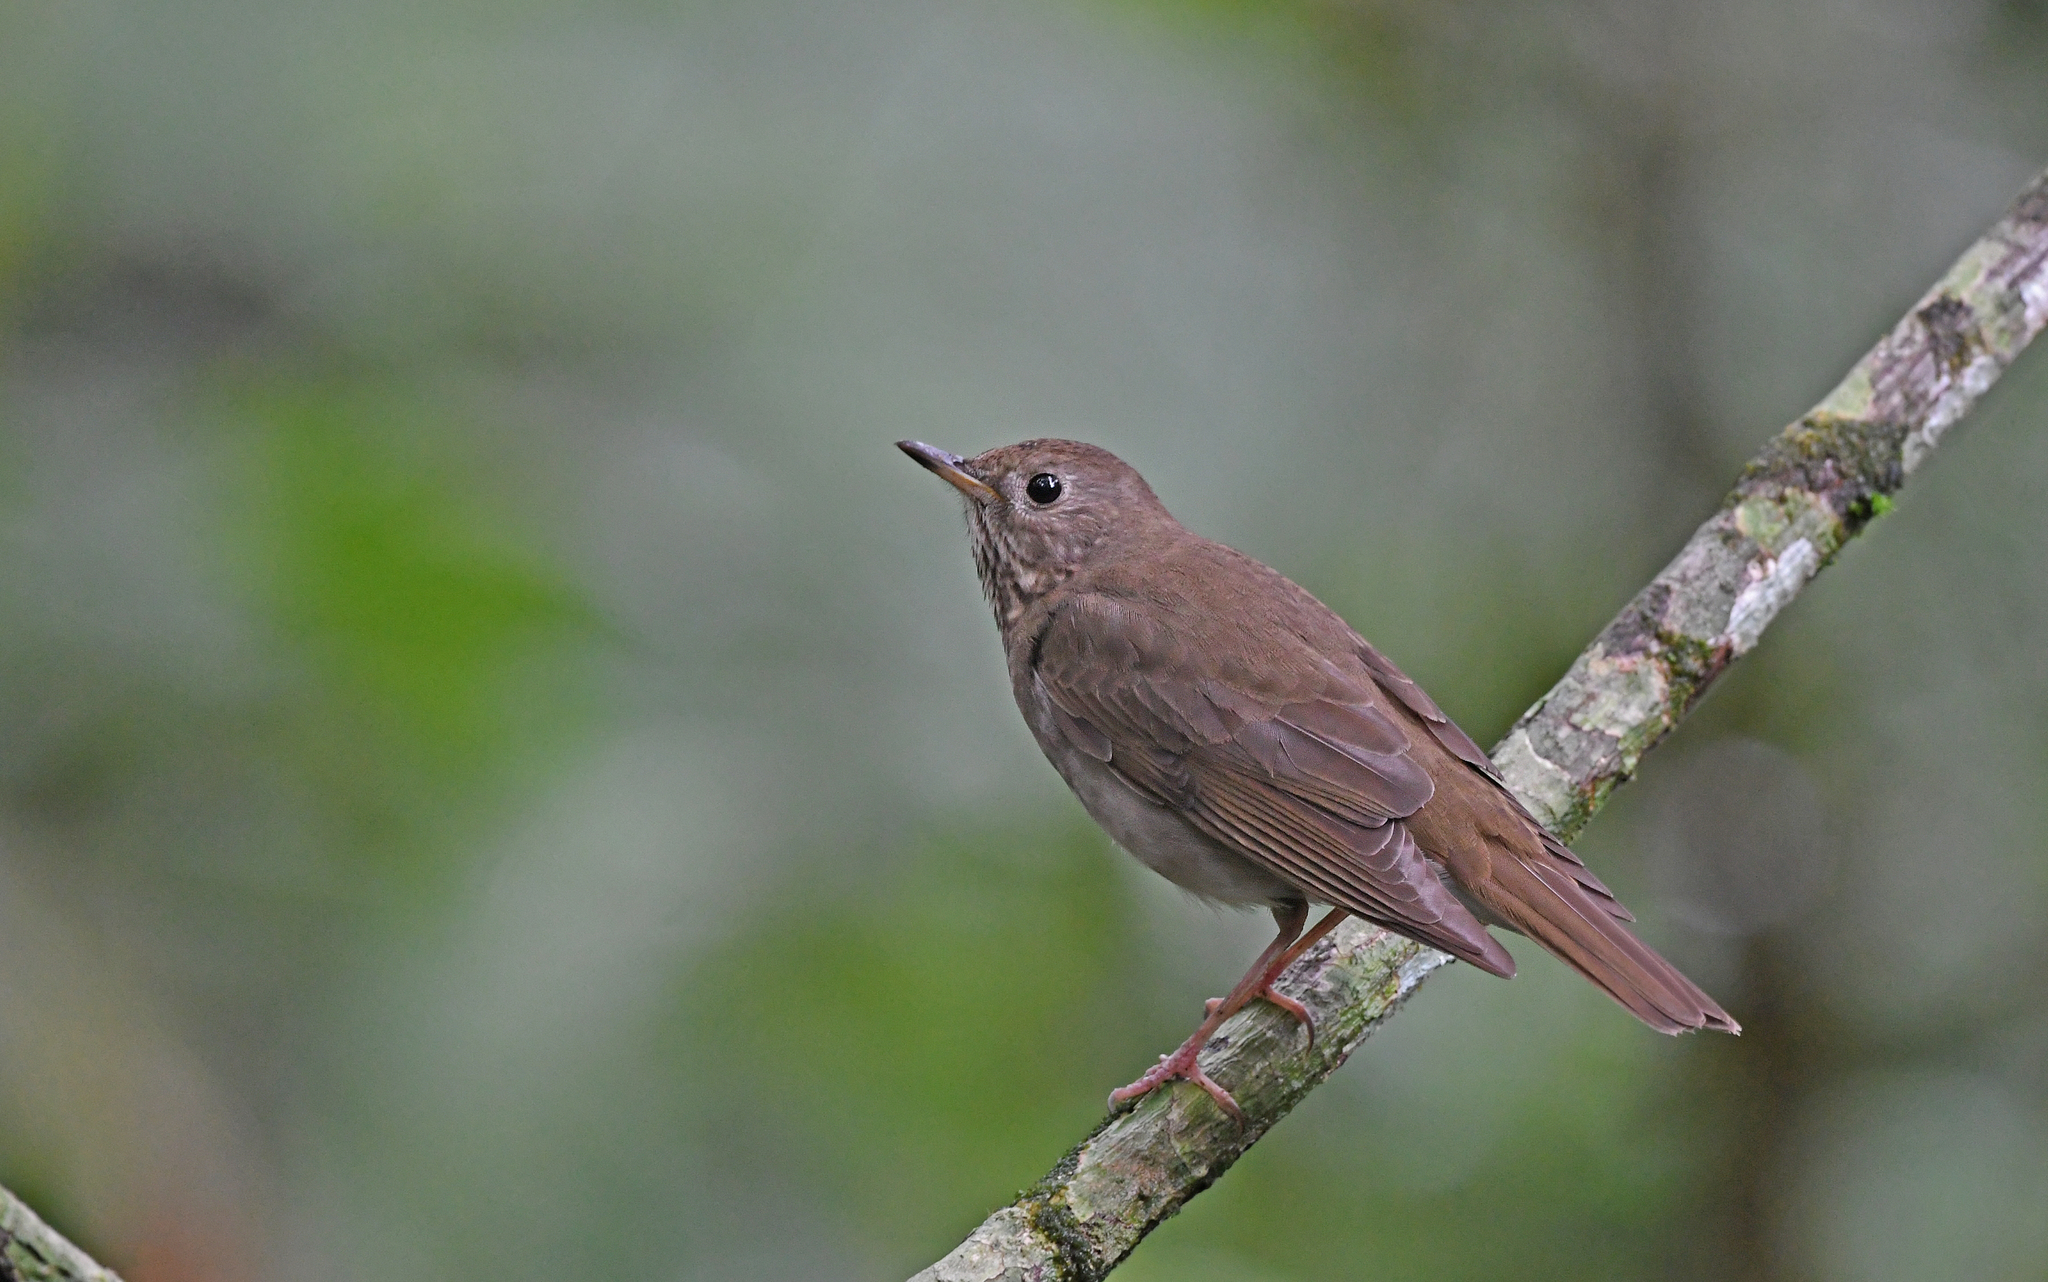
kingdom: Animalia
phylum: Chordata
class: Aves
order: Passeriformes
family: Turdidae
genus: Catharus
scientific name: Catharus minimus
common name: Grey-cheeked thrush
